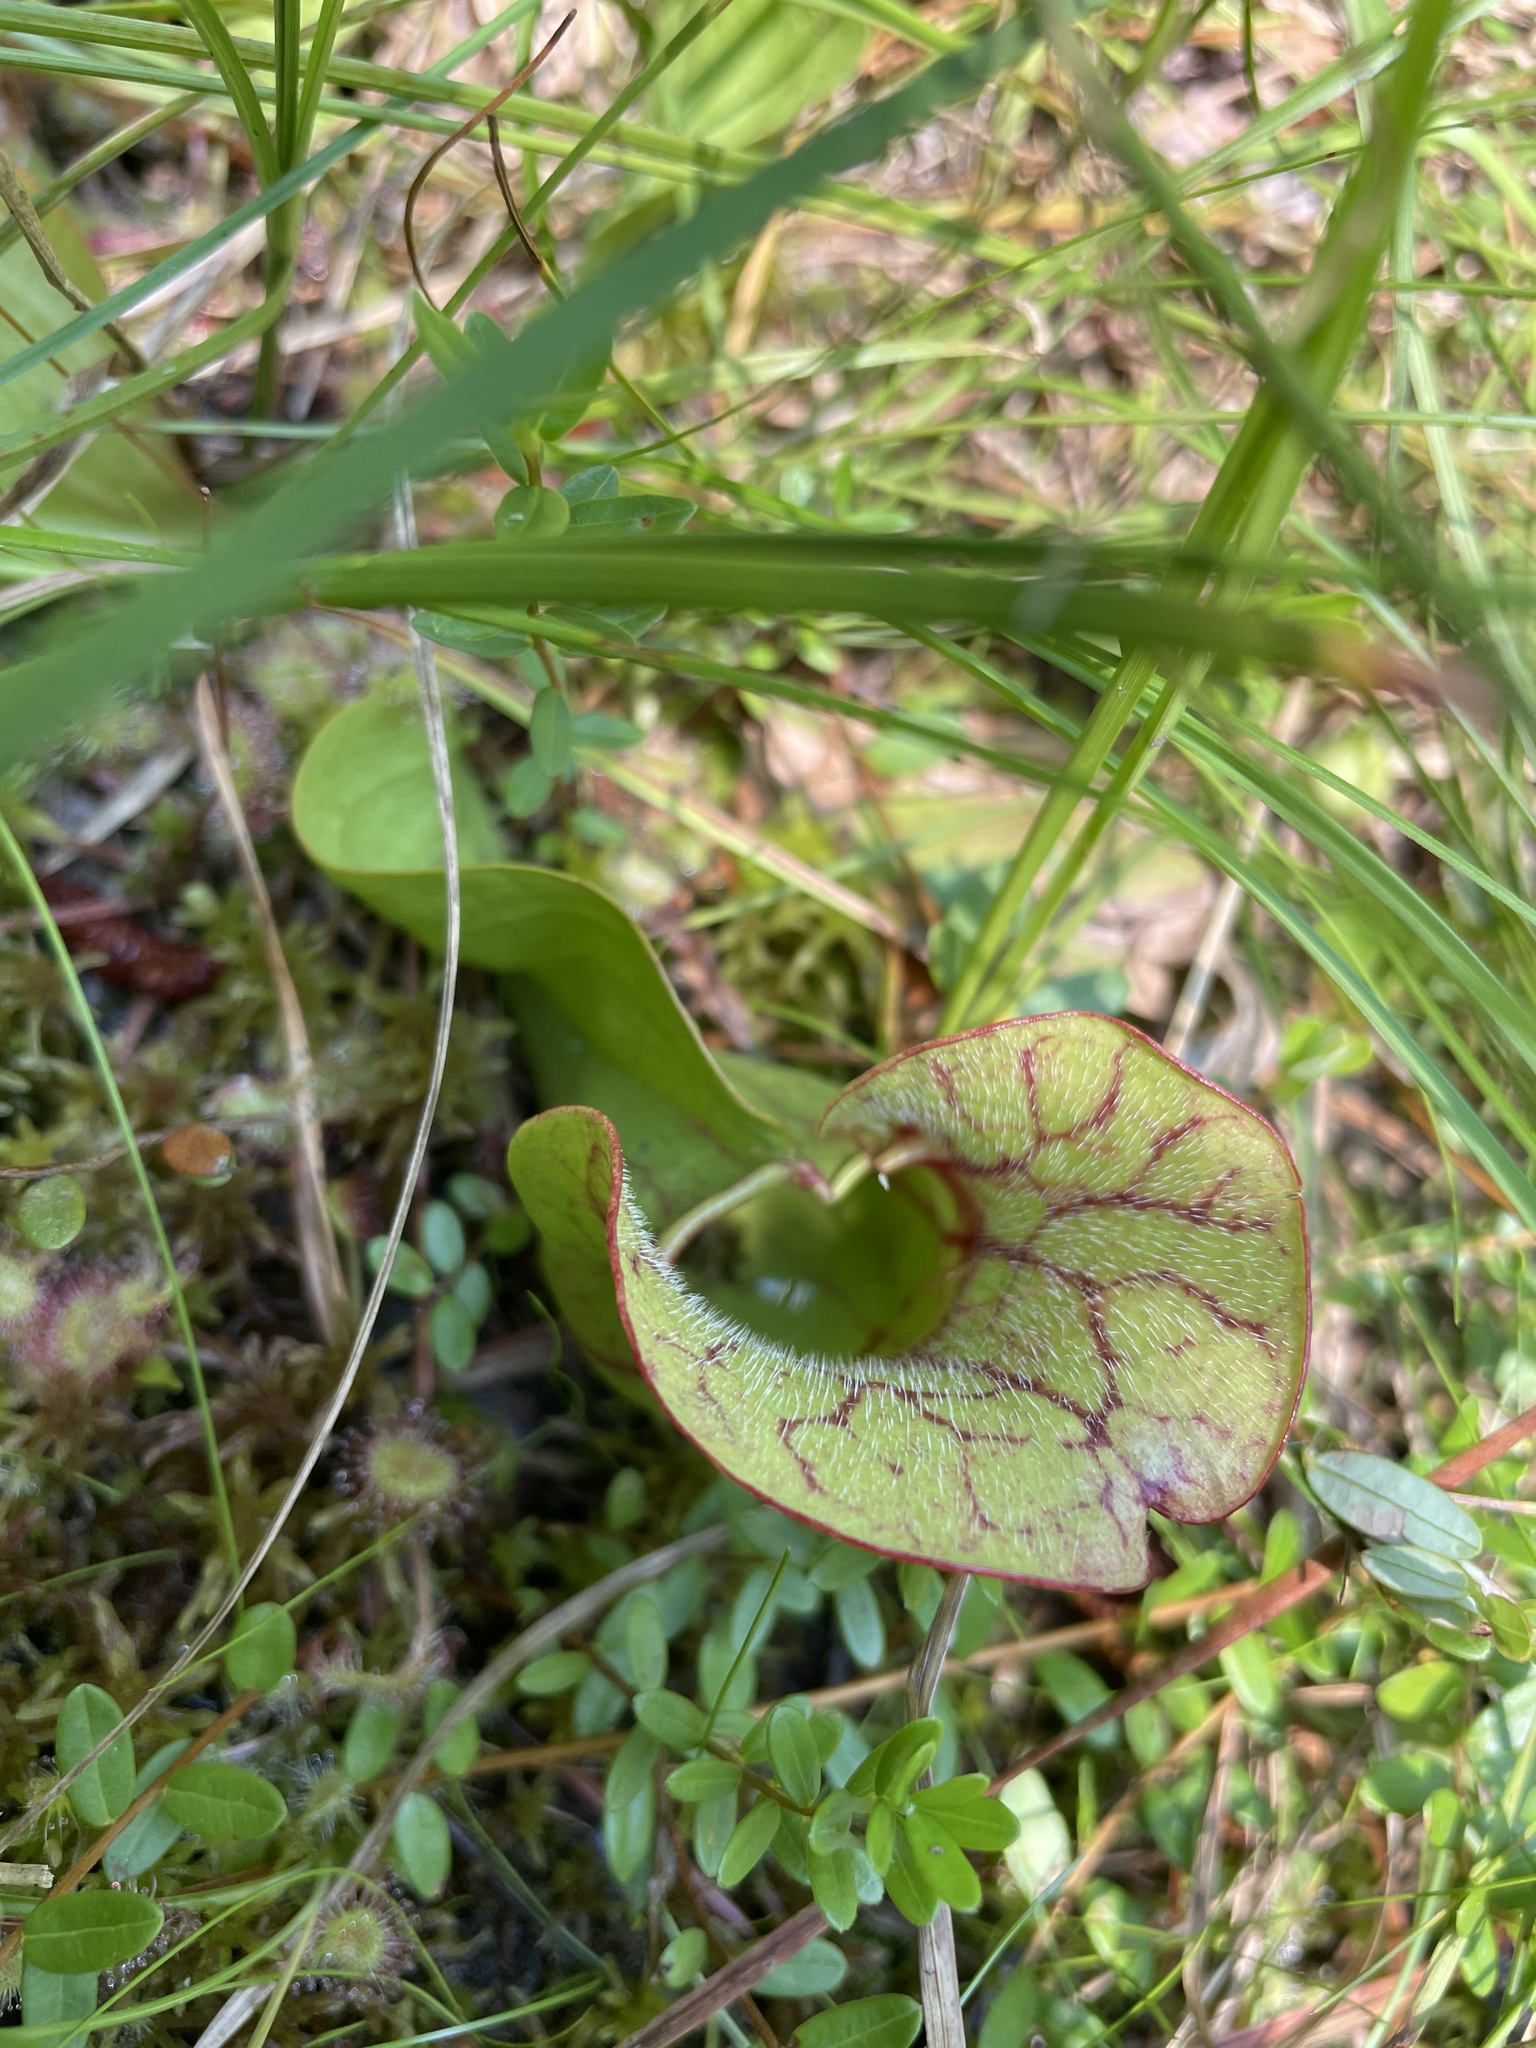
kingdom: Plantae
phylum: Tracheophyta
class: Magnoliopsida
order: Ericales
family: Sarraceniaceae
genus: Sarracenia
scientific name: Sarracenia purpurea
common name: Pitcherplant
